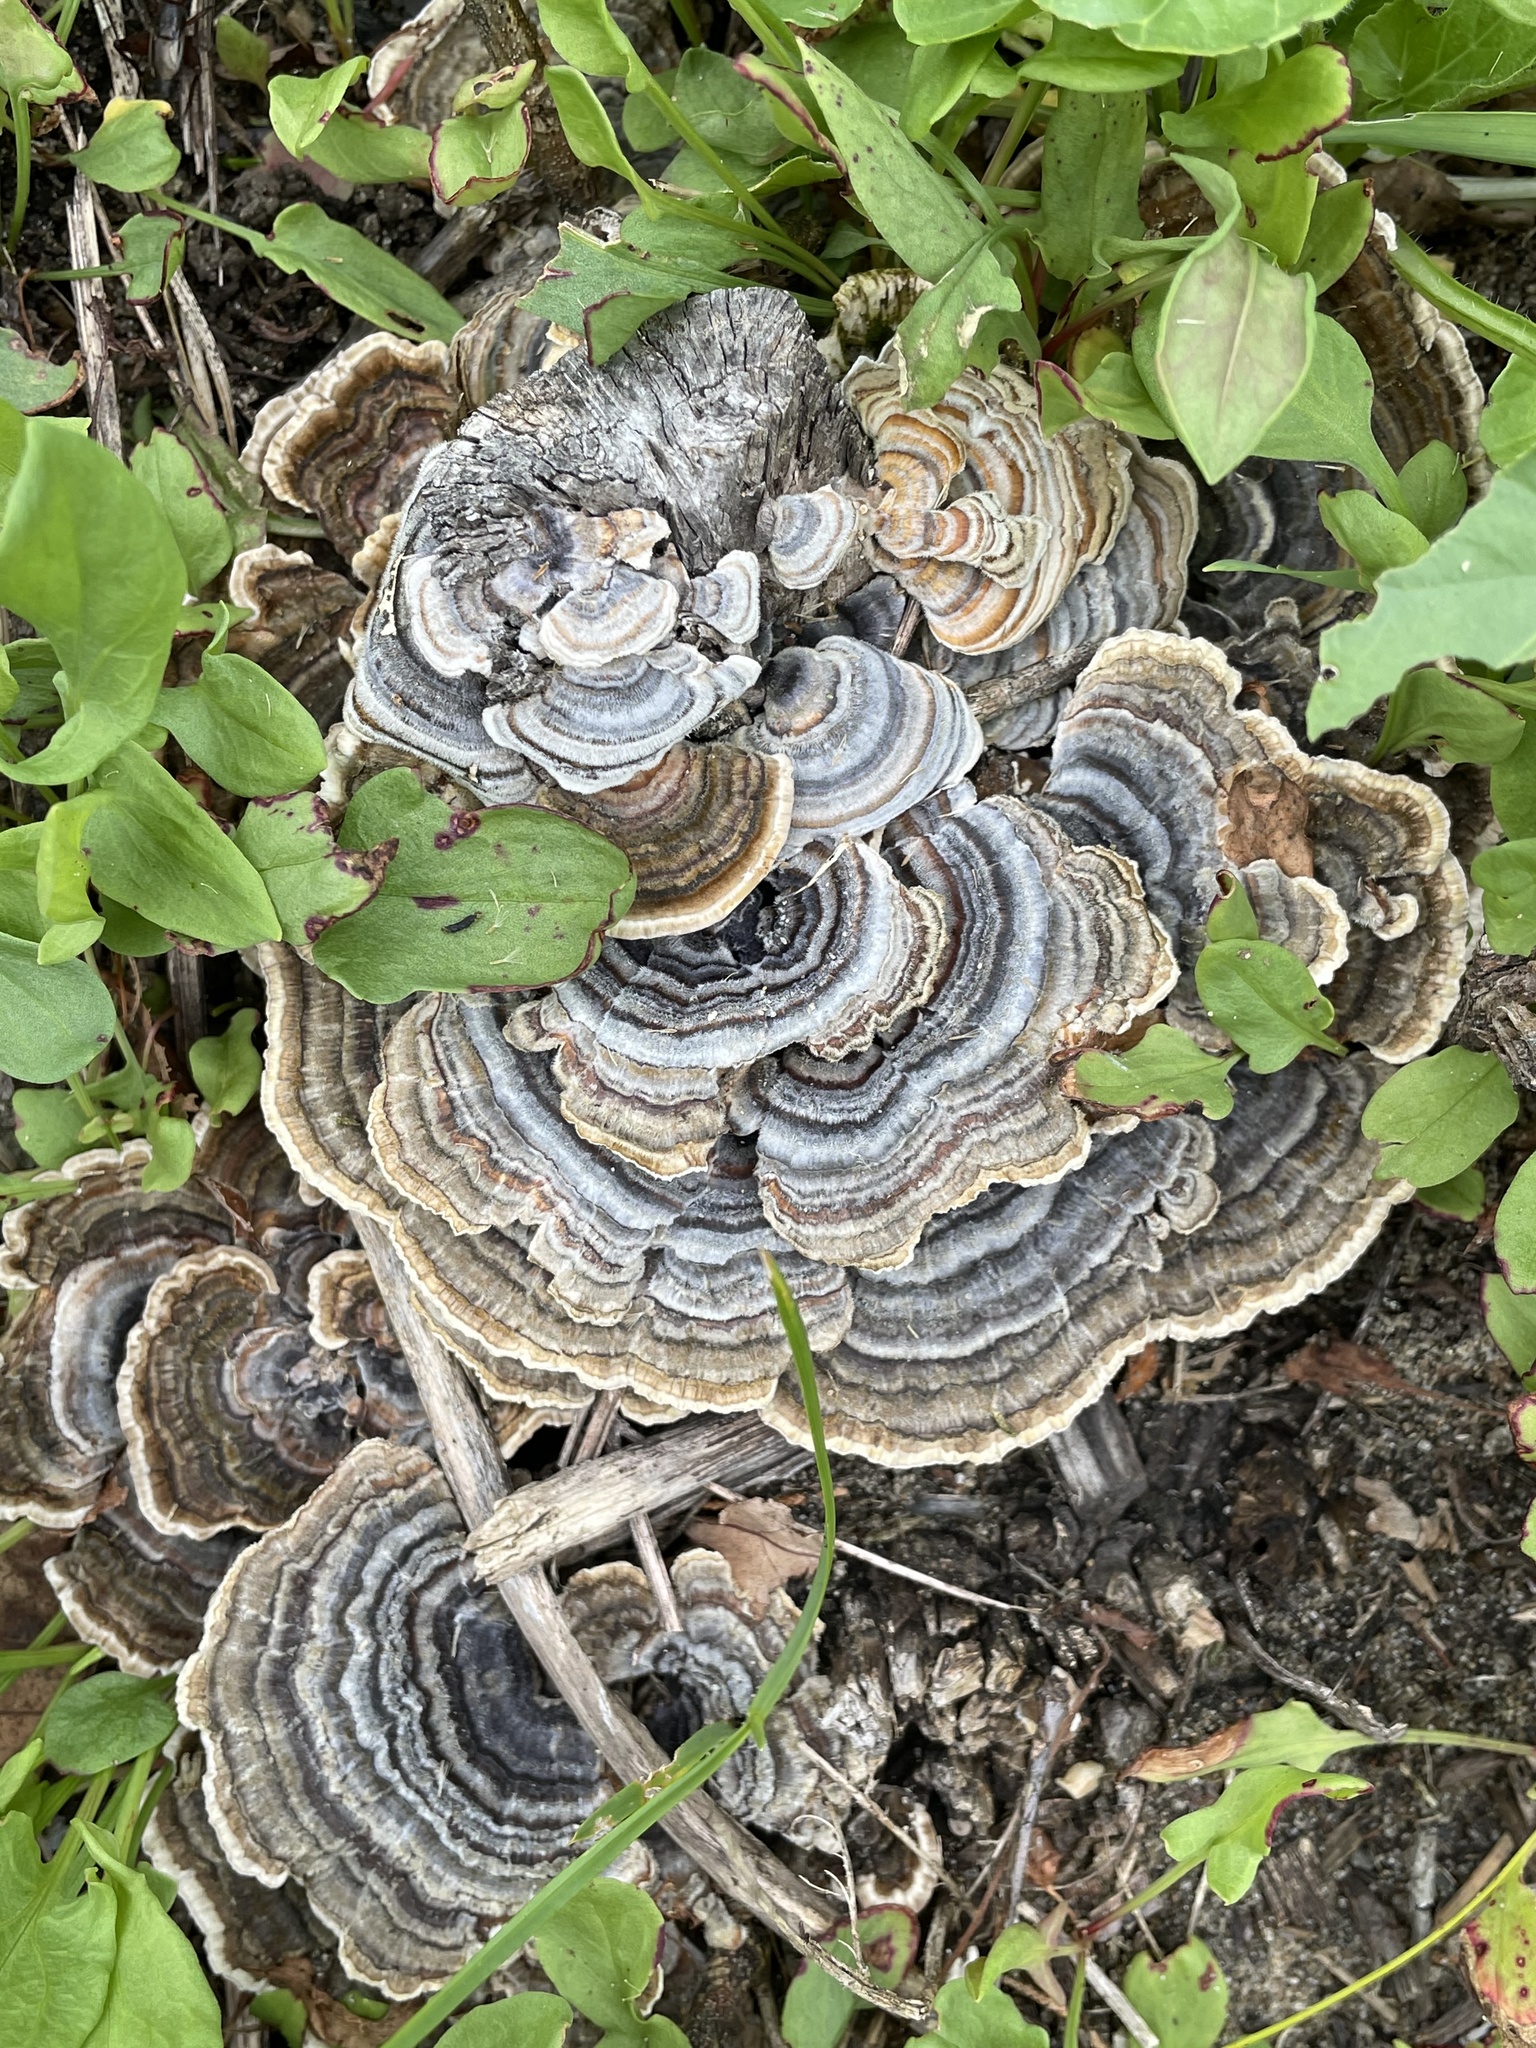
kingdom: Fungi
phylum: Basidiomycota
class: Agaricomycetes
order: Polyporales
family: Polyporaceae
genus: Trametes
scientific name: Trametes versicolor
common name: Turkeytail
